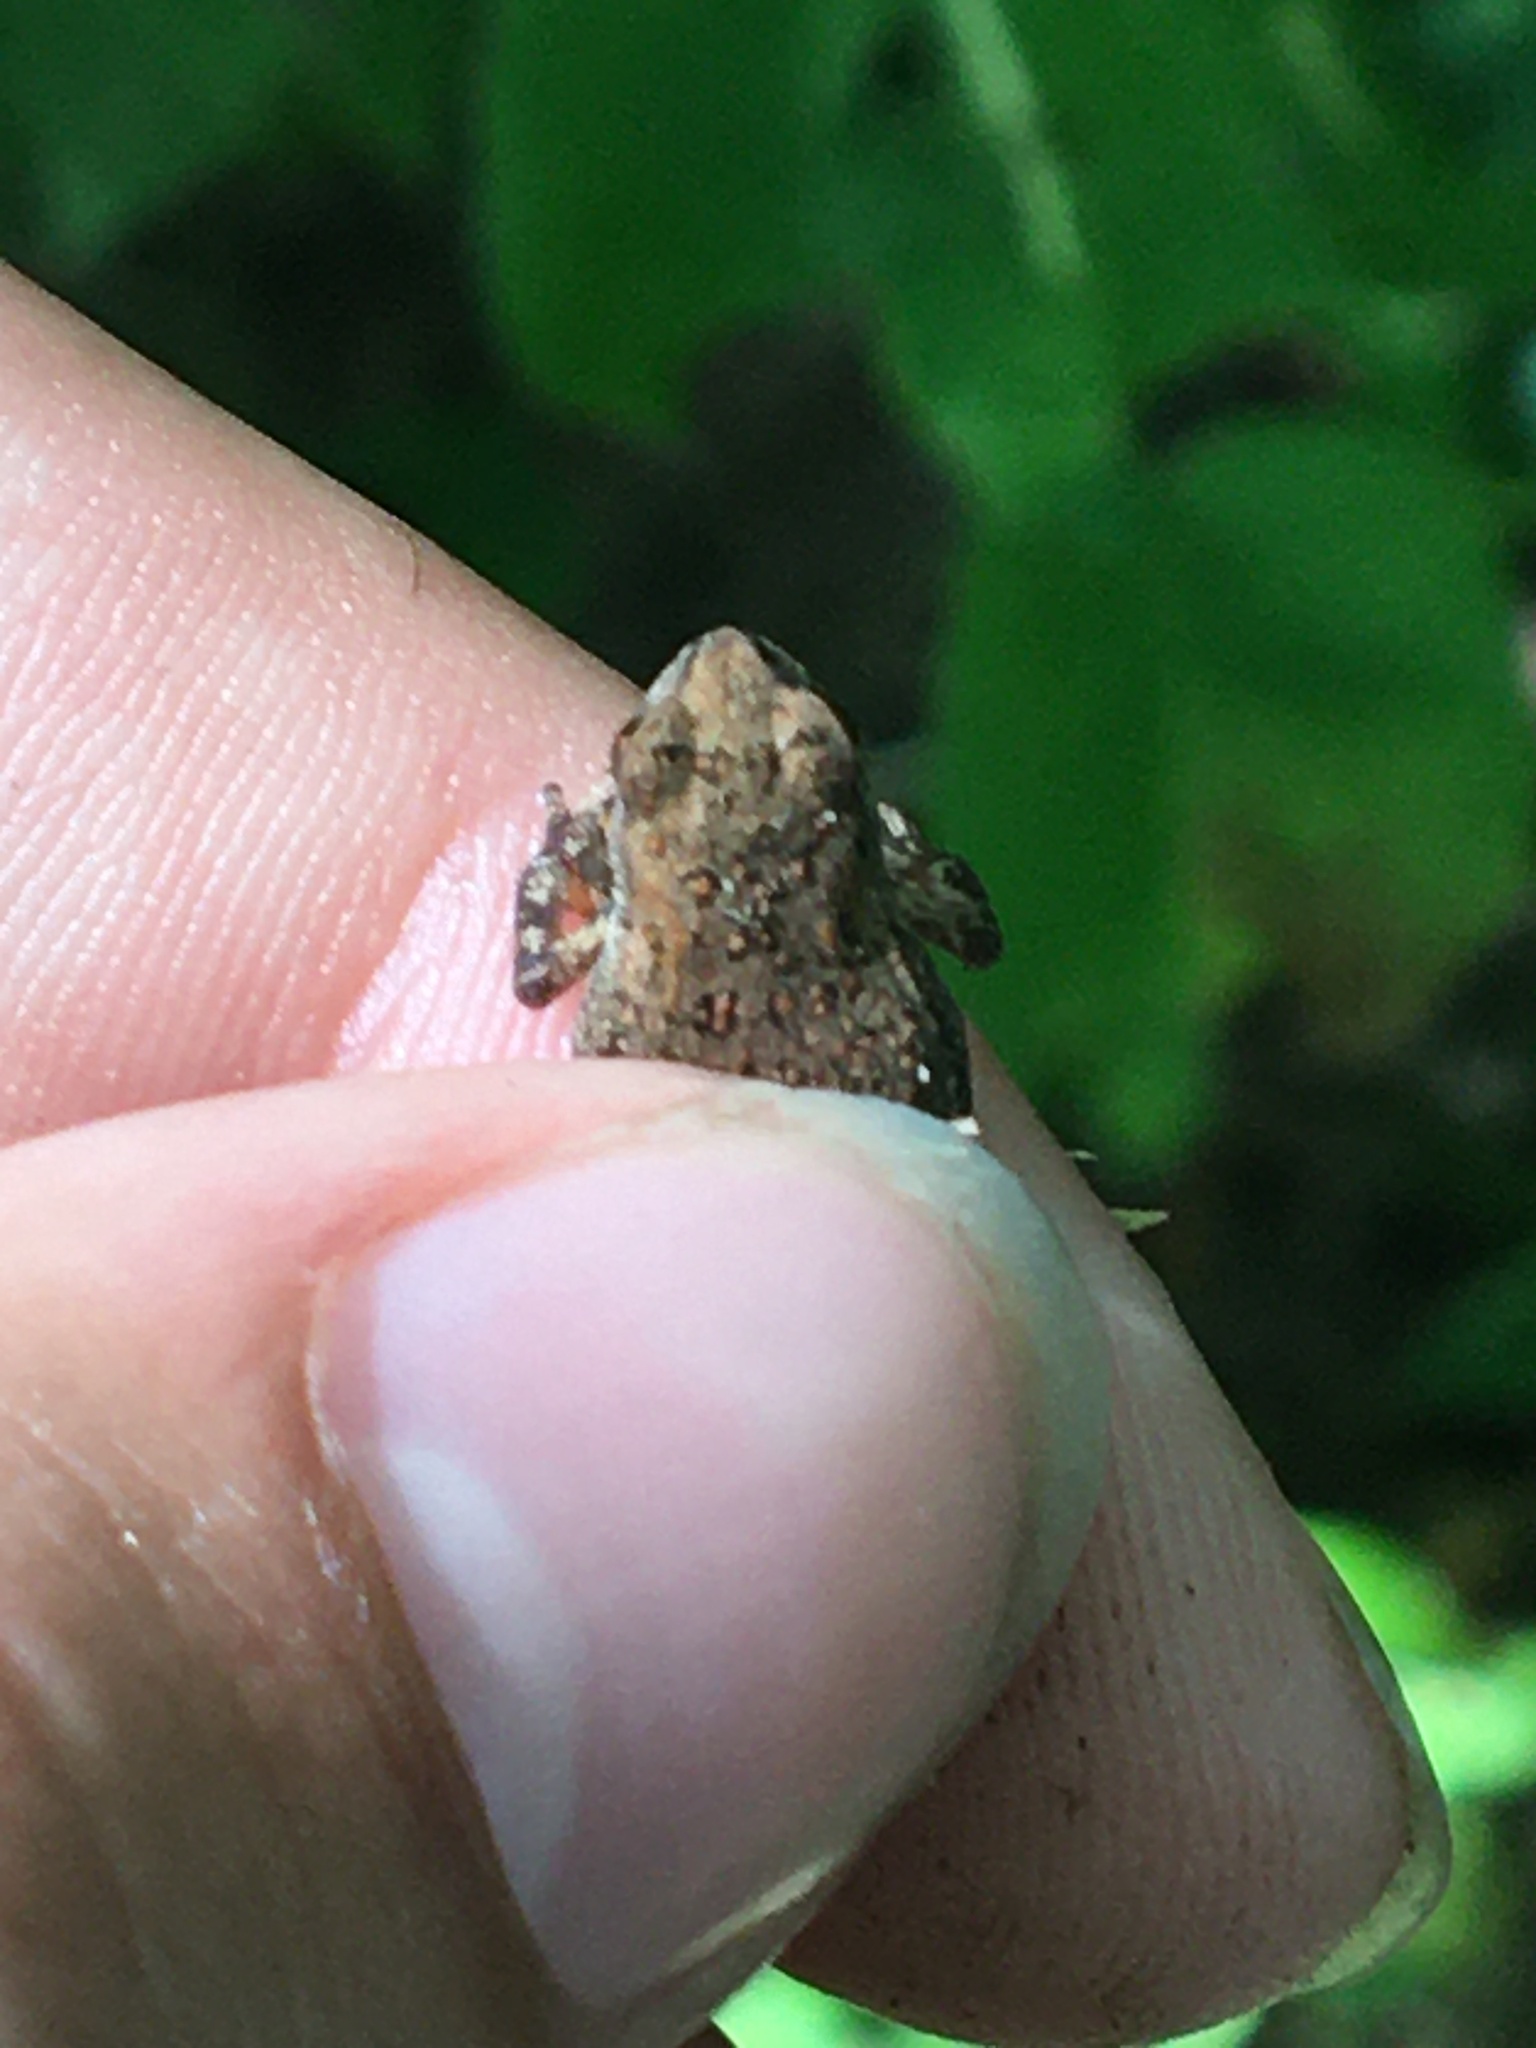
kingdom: Animalia
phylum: Chordata
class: Amphibia
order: Anura
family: Bufonidae
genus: Anaxyrus
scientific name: Anaxyrus americanus
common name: American toad
